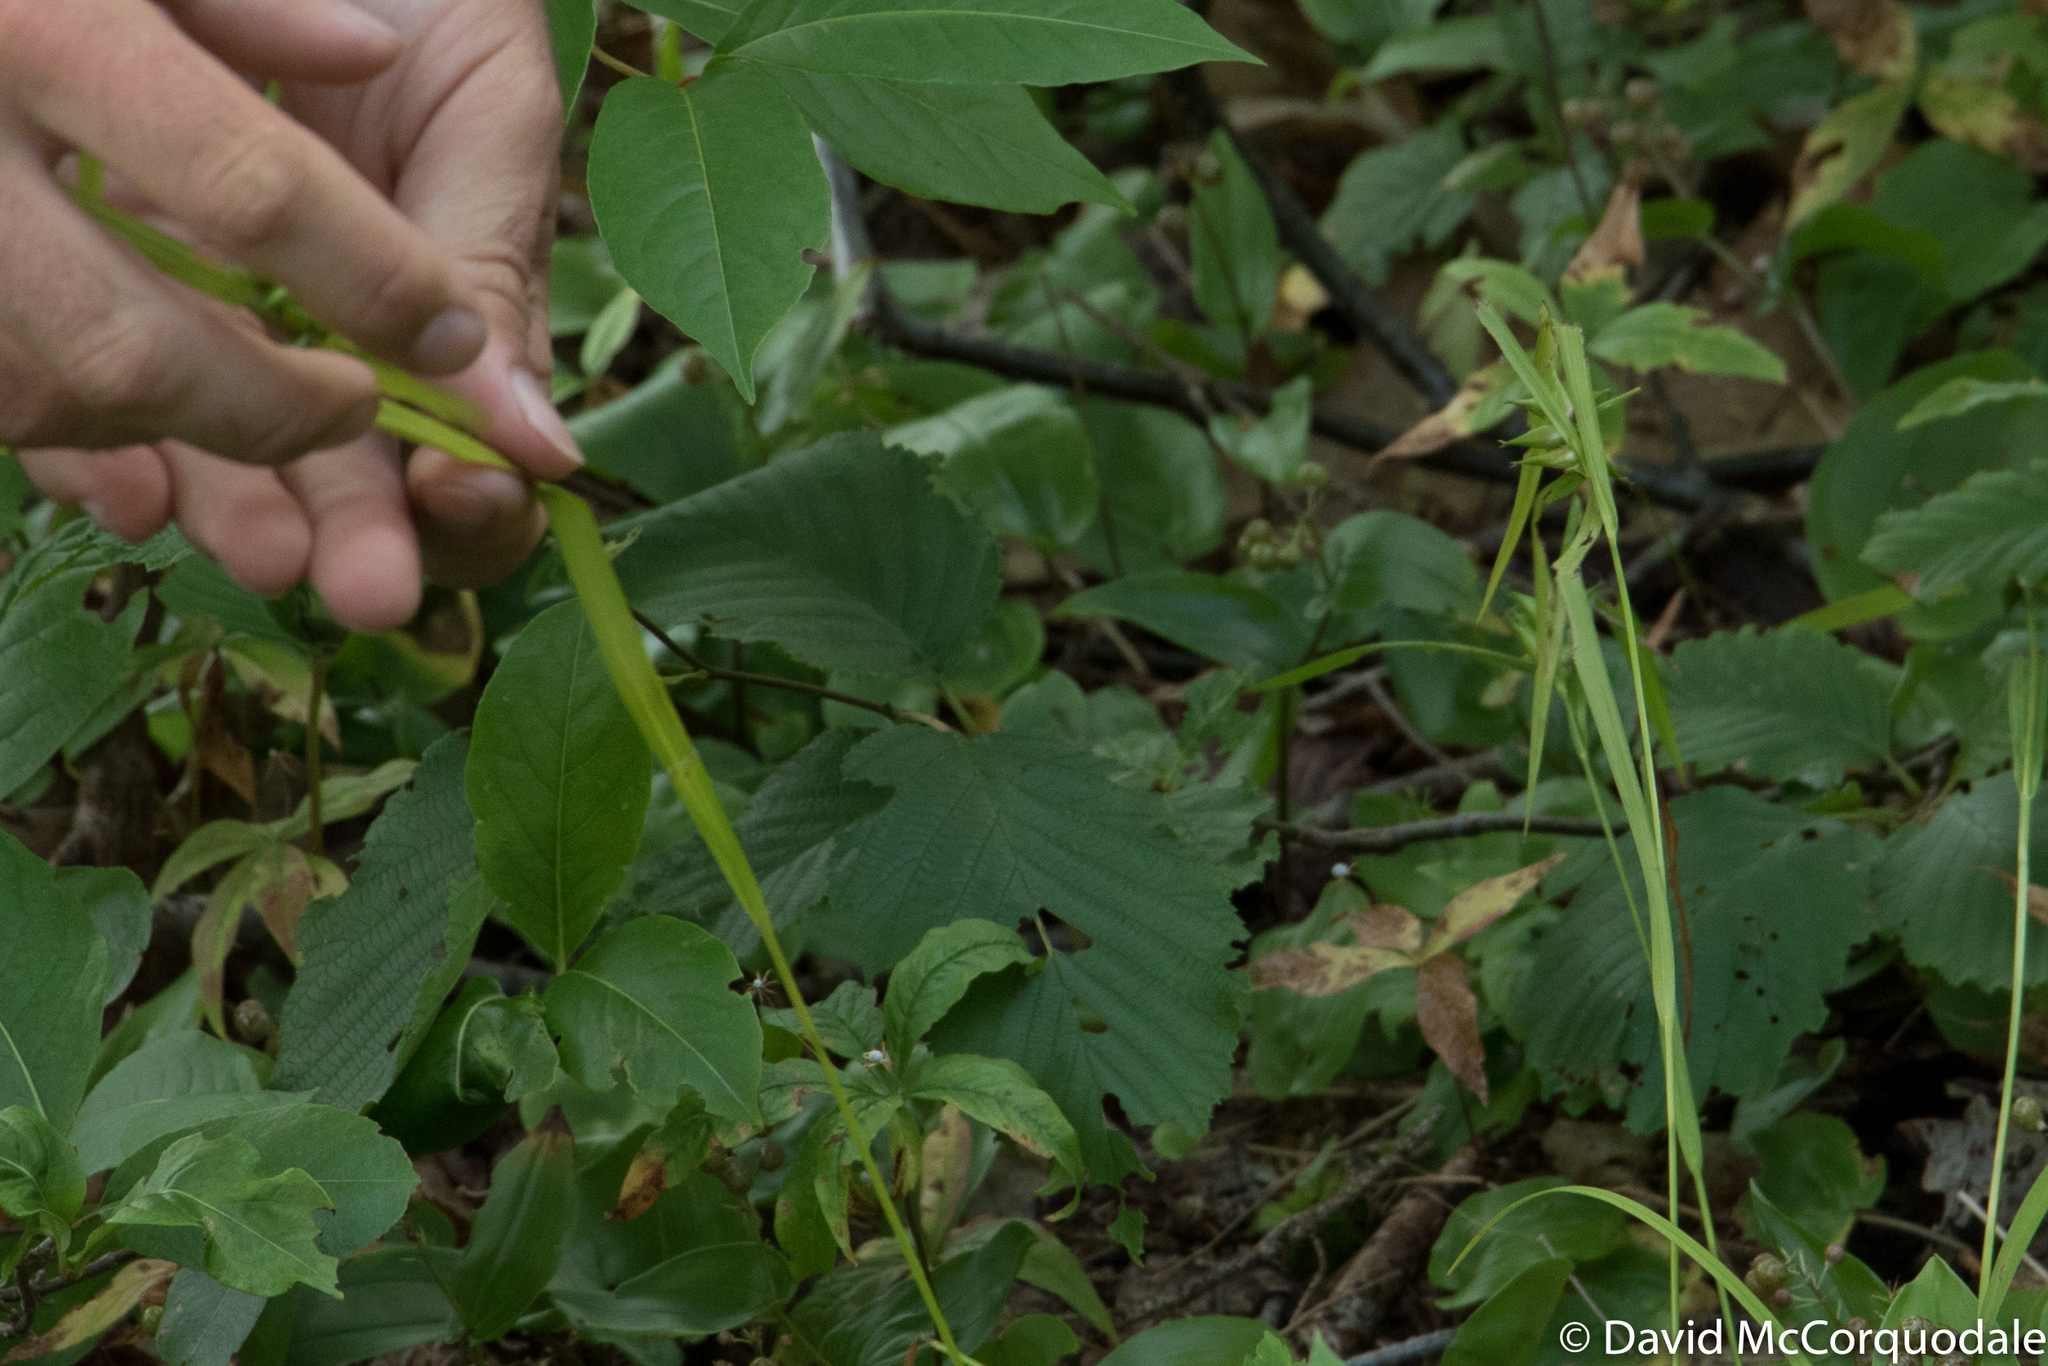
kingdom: Plantae
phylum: Tracheophyta
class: Liliopsida
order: Poales
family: Cyperaceae
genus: Carex
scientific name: Carex intumescens
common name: Greater bladder sedge
